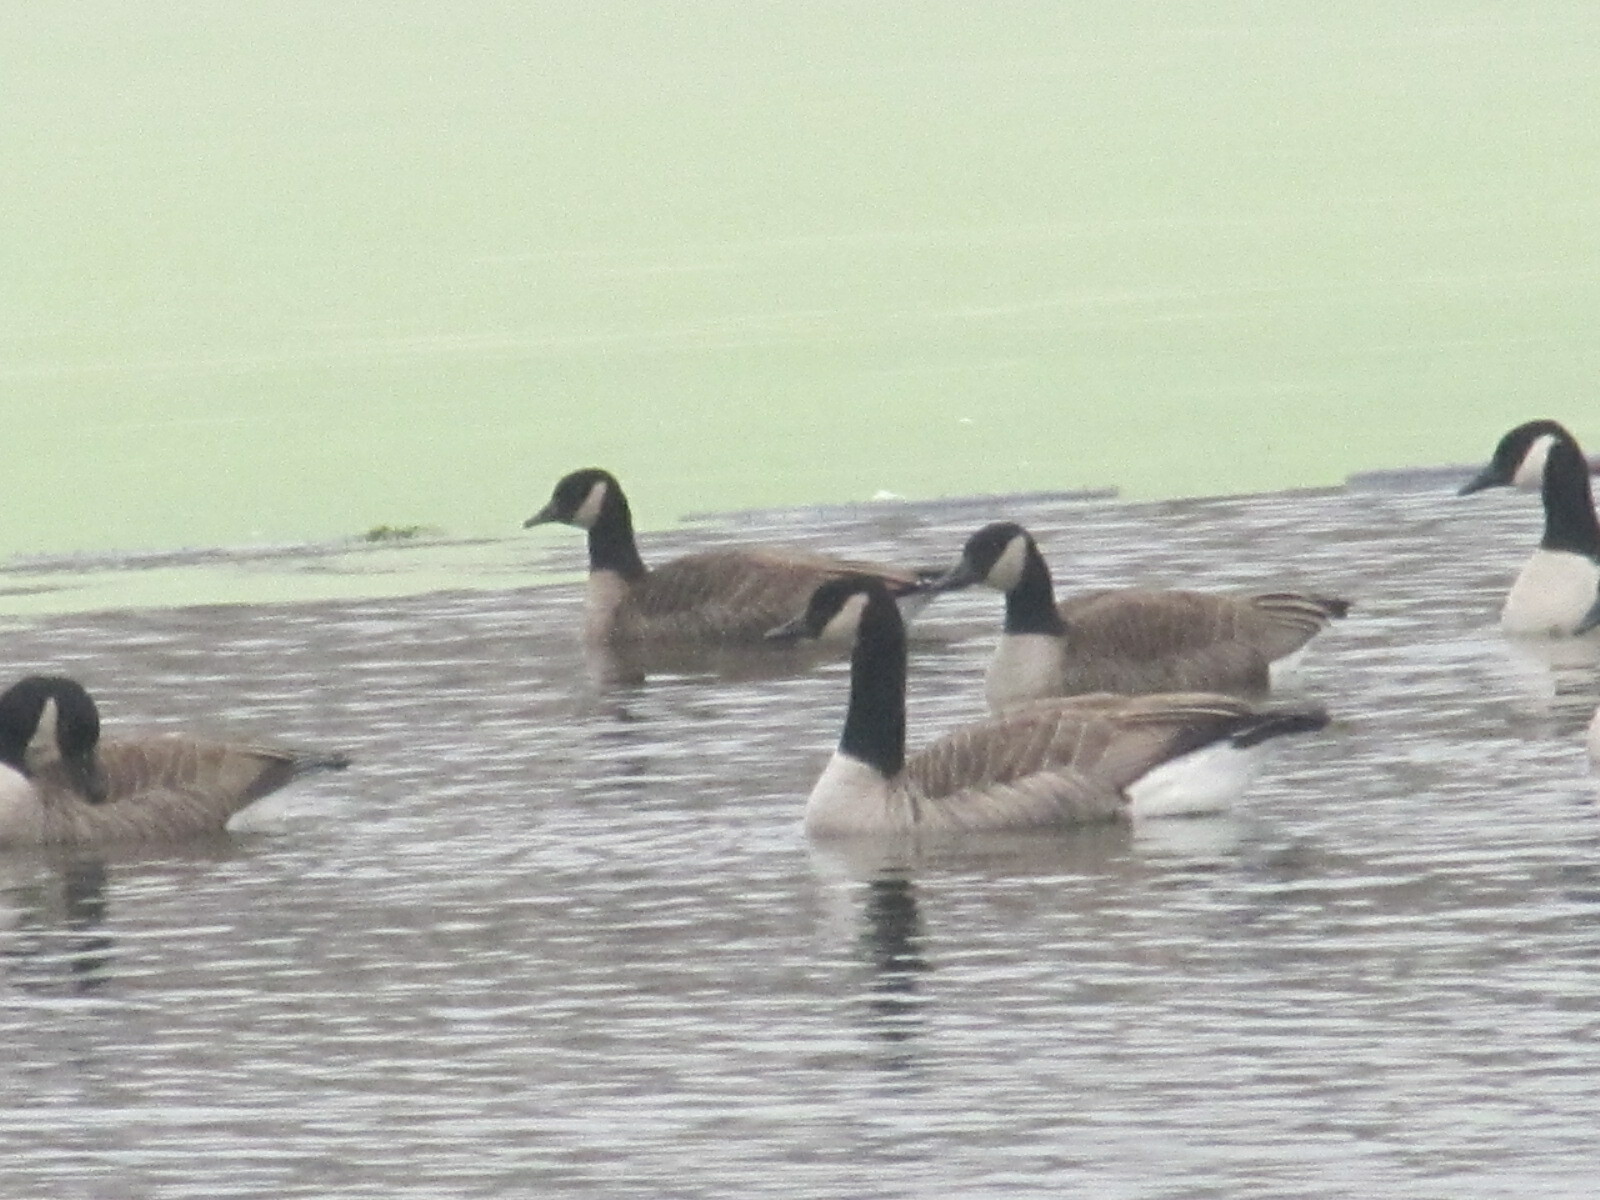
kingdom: Animalia
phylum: Chordata
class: Aves
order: Anseriformes
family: Anatidae
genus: Branta
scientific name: Branta hutchinsii
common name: Cackling goose
